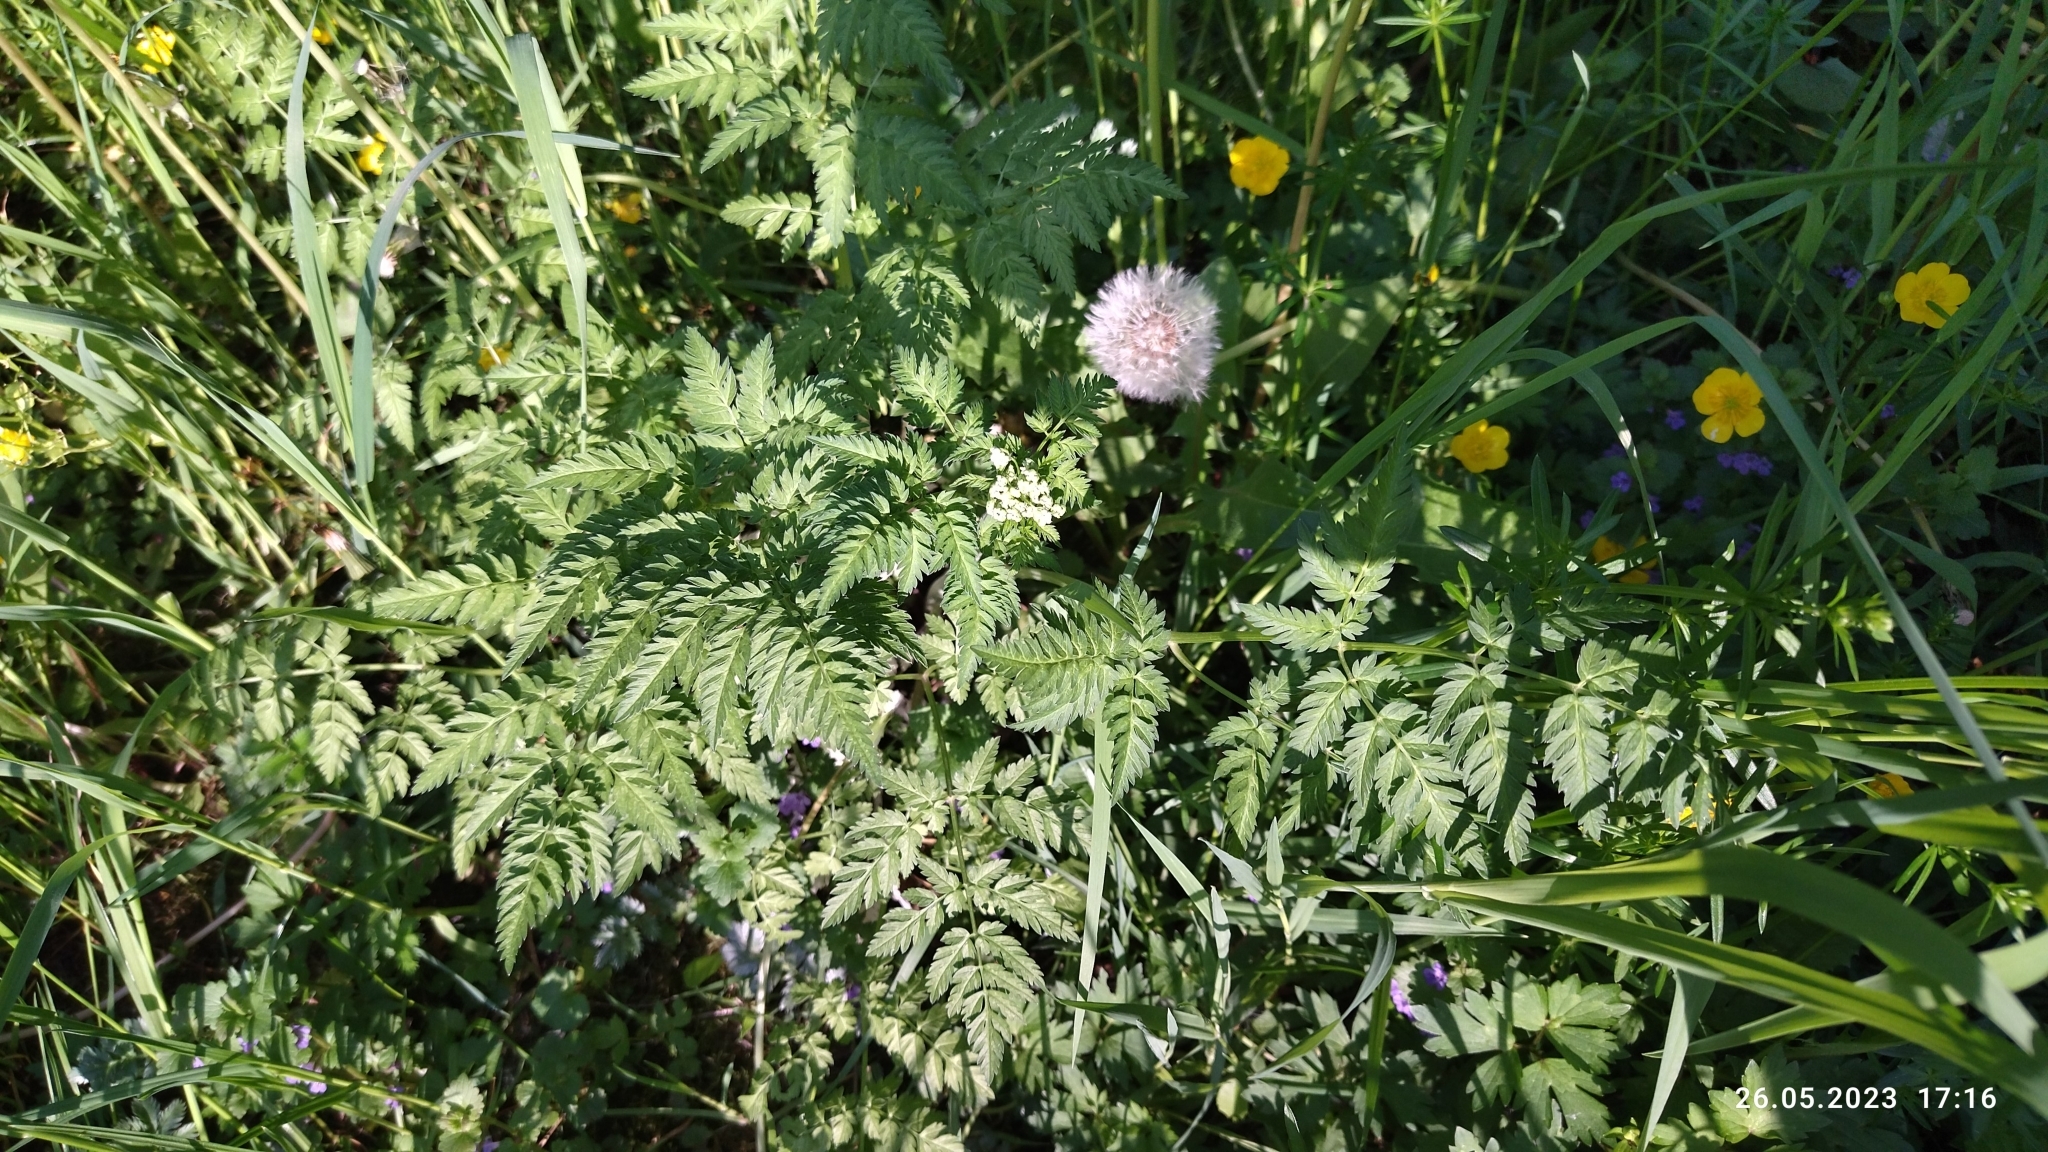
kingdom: Plantae
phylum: Tracheophyta
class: Magnoliopsida
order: Apiales
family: Apiaceae
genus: Anthriscus
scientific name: Anthriscus sylvestris
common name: Cow parsley
